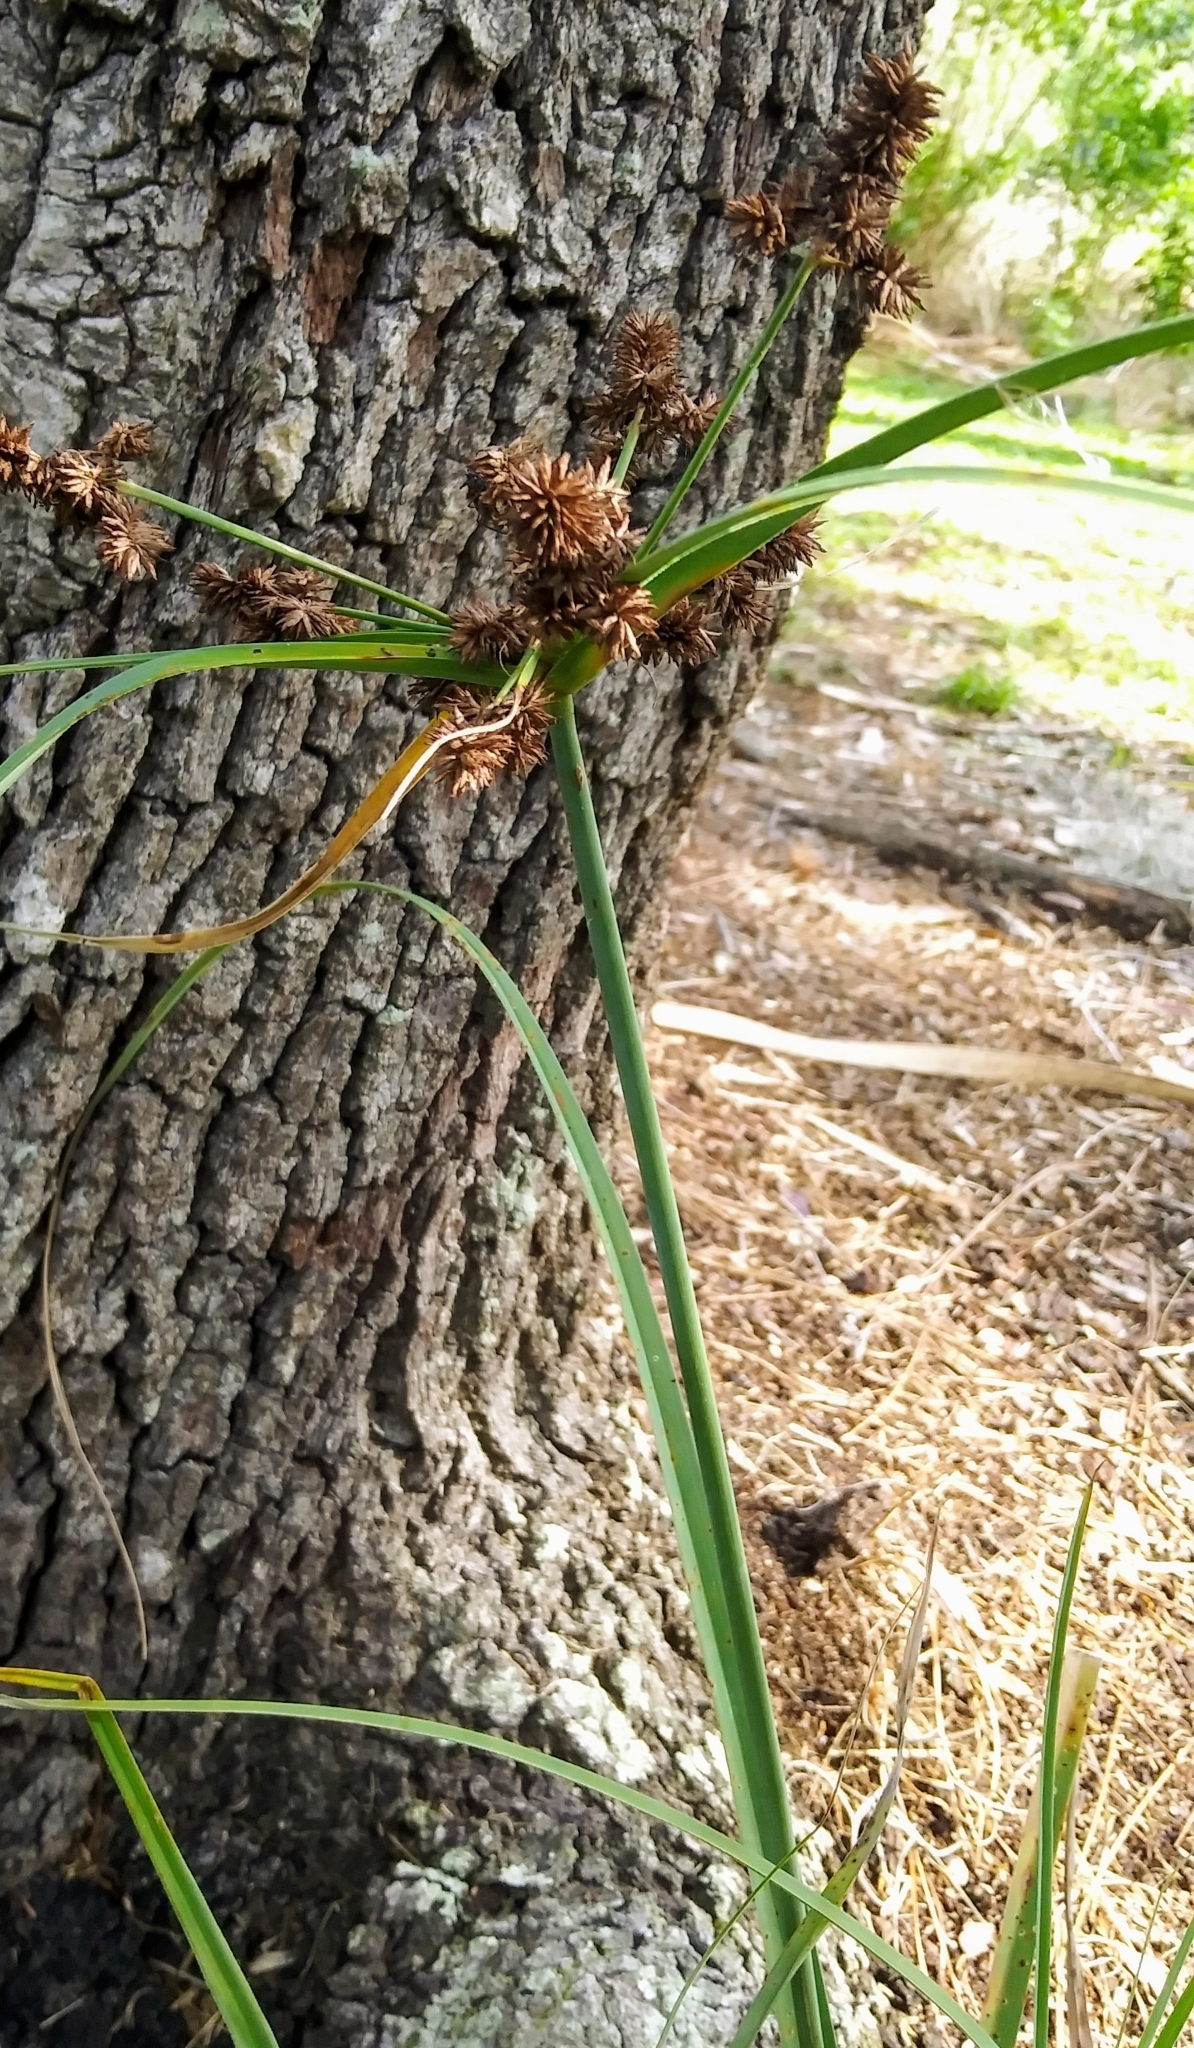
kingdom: Plantae
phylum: Tracheophyta
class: Liliopsida
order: Poales
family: Cyperaceae
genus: Cyperus
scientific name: Cyperus ligularis
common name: Swamp flat sedge
